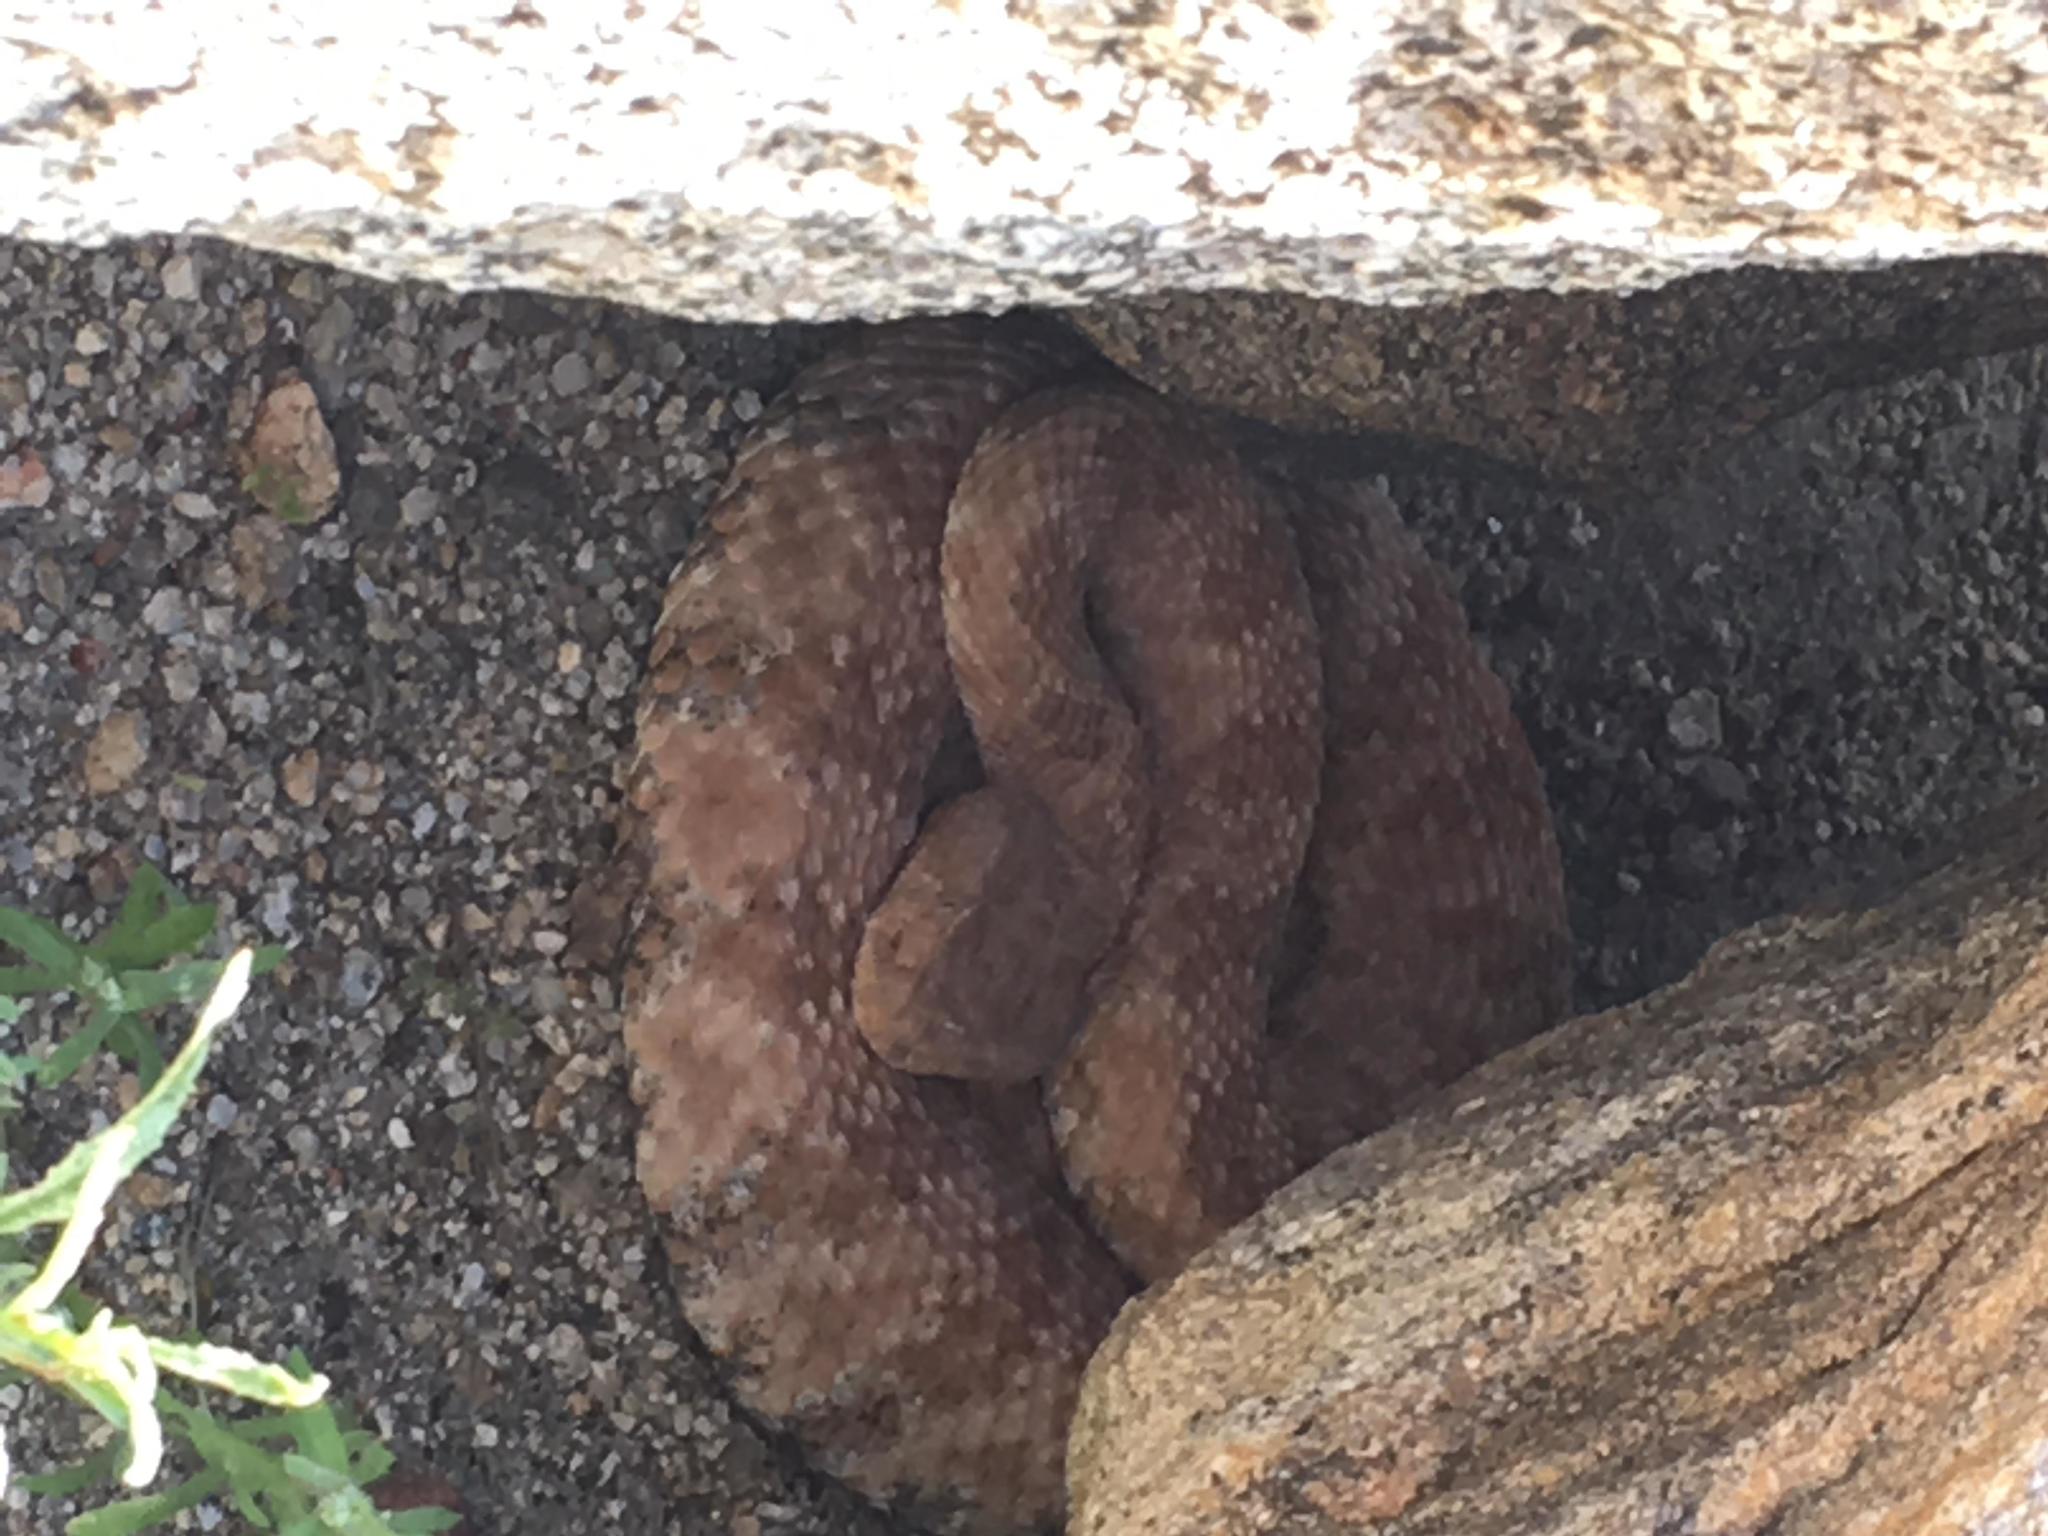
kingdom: Animalia
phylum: Chordata
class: Squamata
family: Viperidae
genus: Crotalus
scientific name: Crotalus pyrrhus
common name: Southwestern speckled rattlesnake
